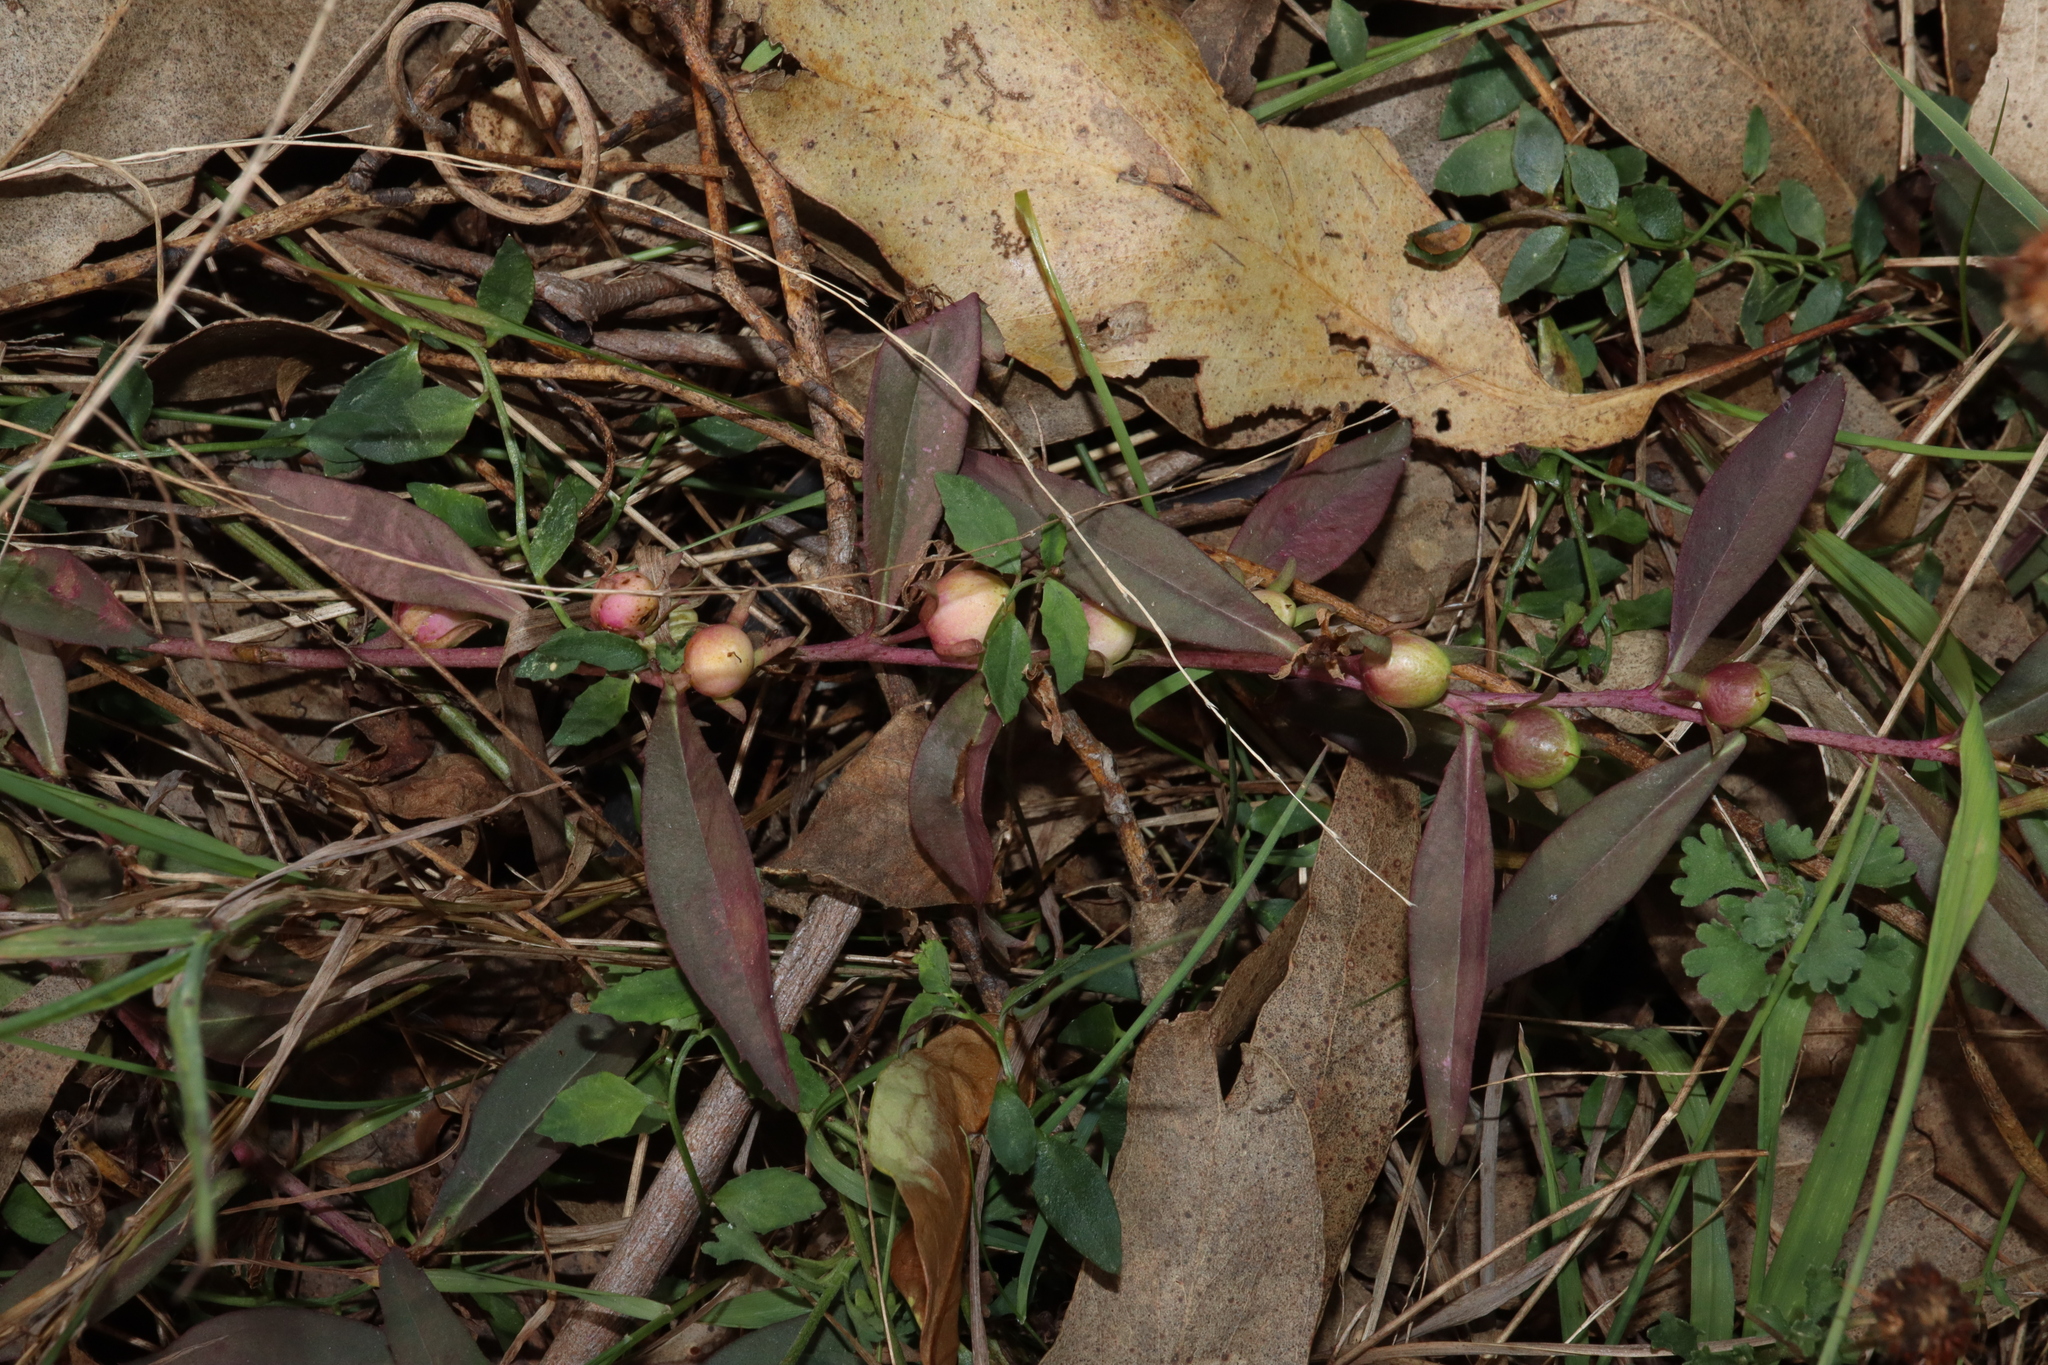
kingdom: Plantae
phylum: Tracheophyta
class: Magnoliopsida
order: Lamiales
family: Scrophulariaceae
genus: Eremophila
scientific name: Eremophila debilis
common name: Winter-apple
